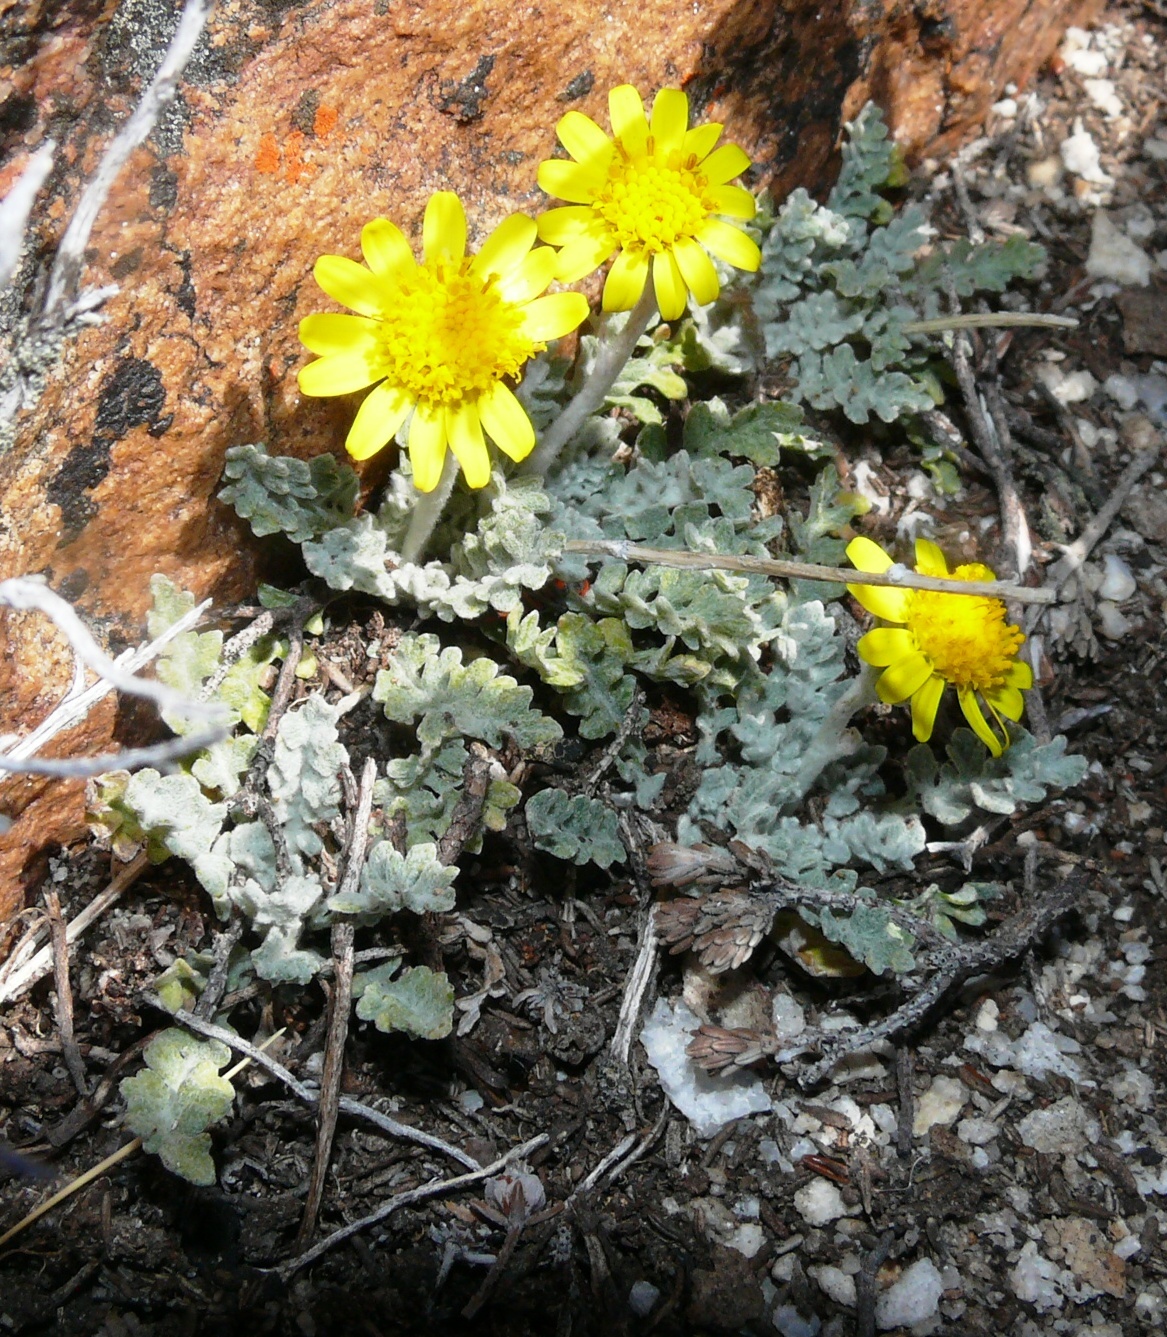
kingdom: Plantae
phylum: Tracheophyta
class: Magnoliopsida
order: Asterales
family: Asteraceae
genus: Senecio
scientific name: Senecio albifolius
